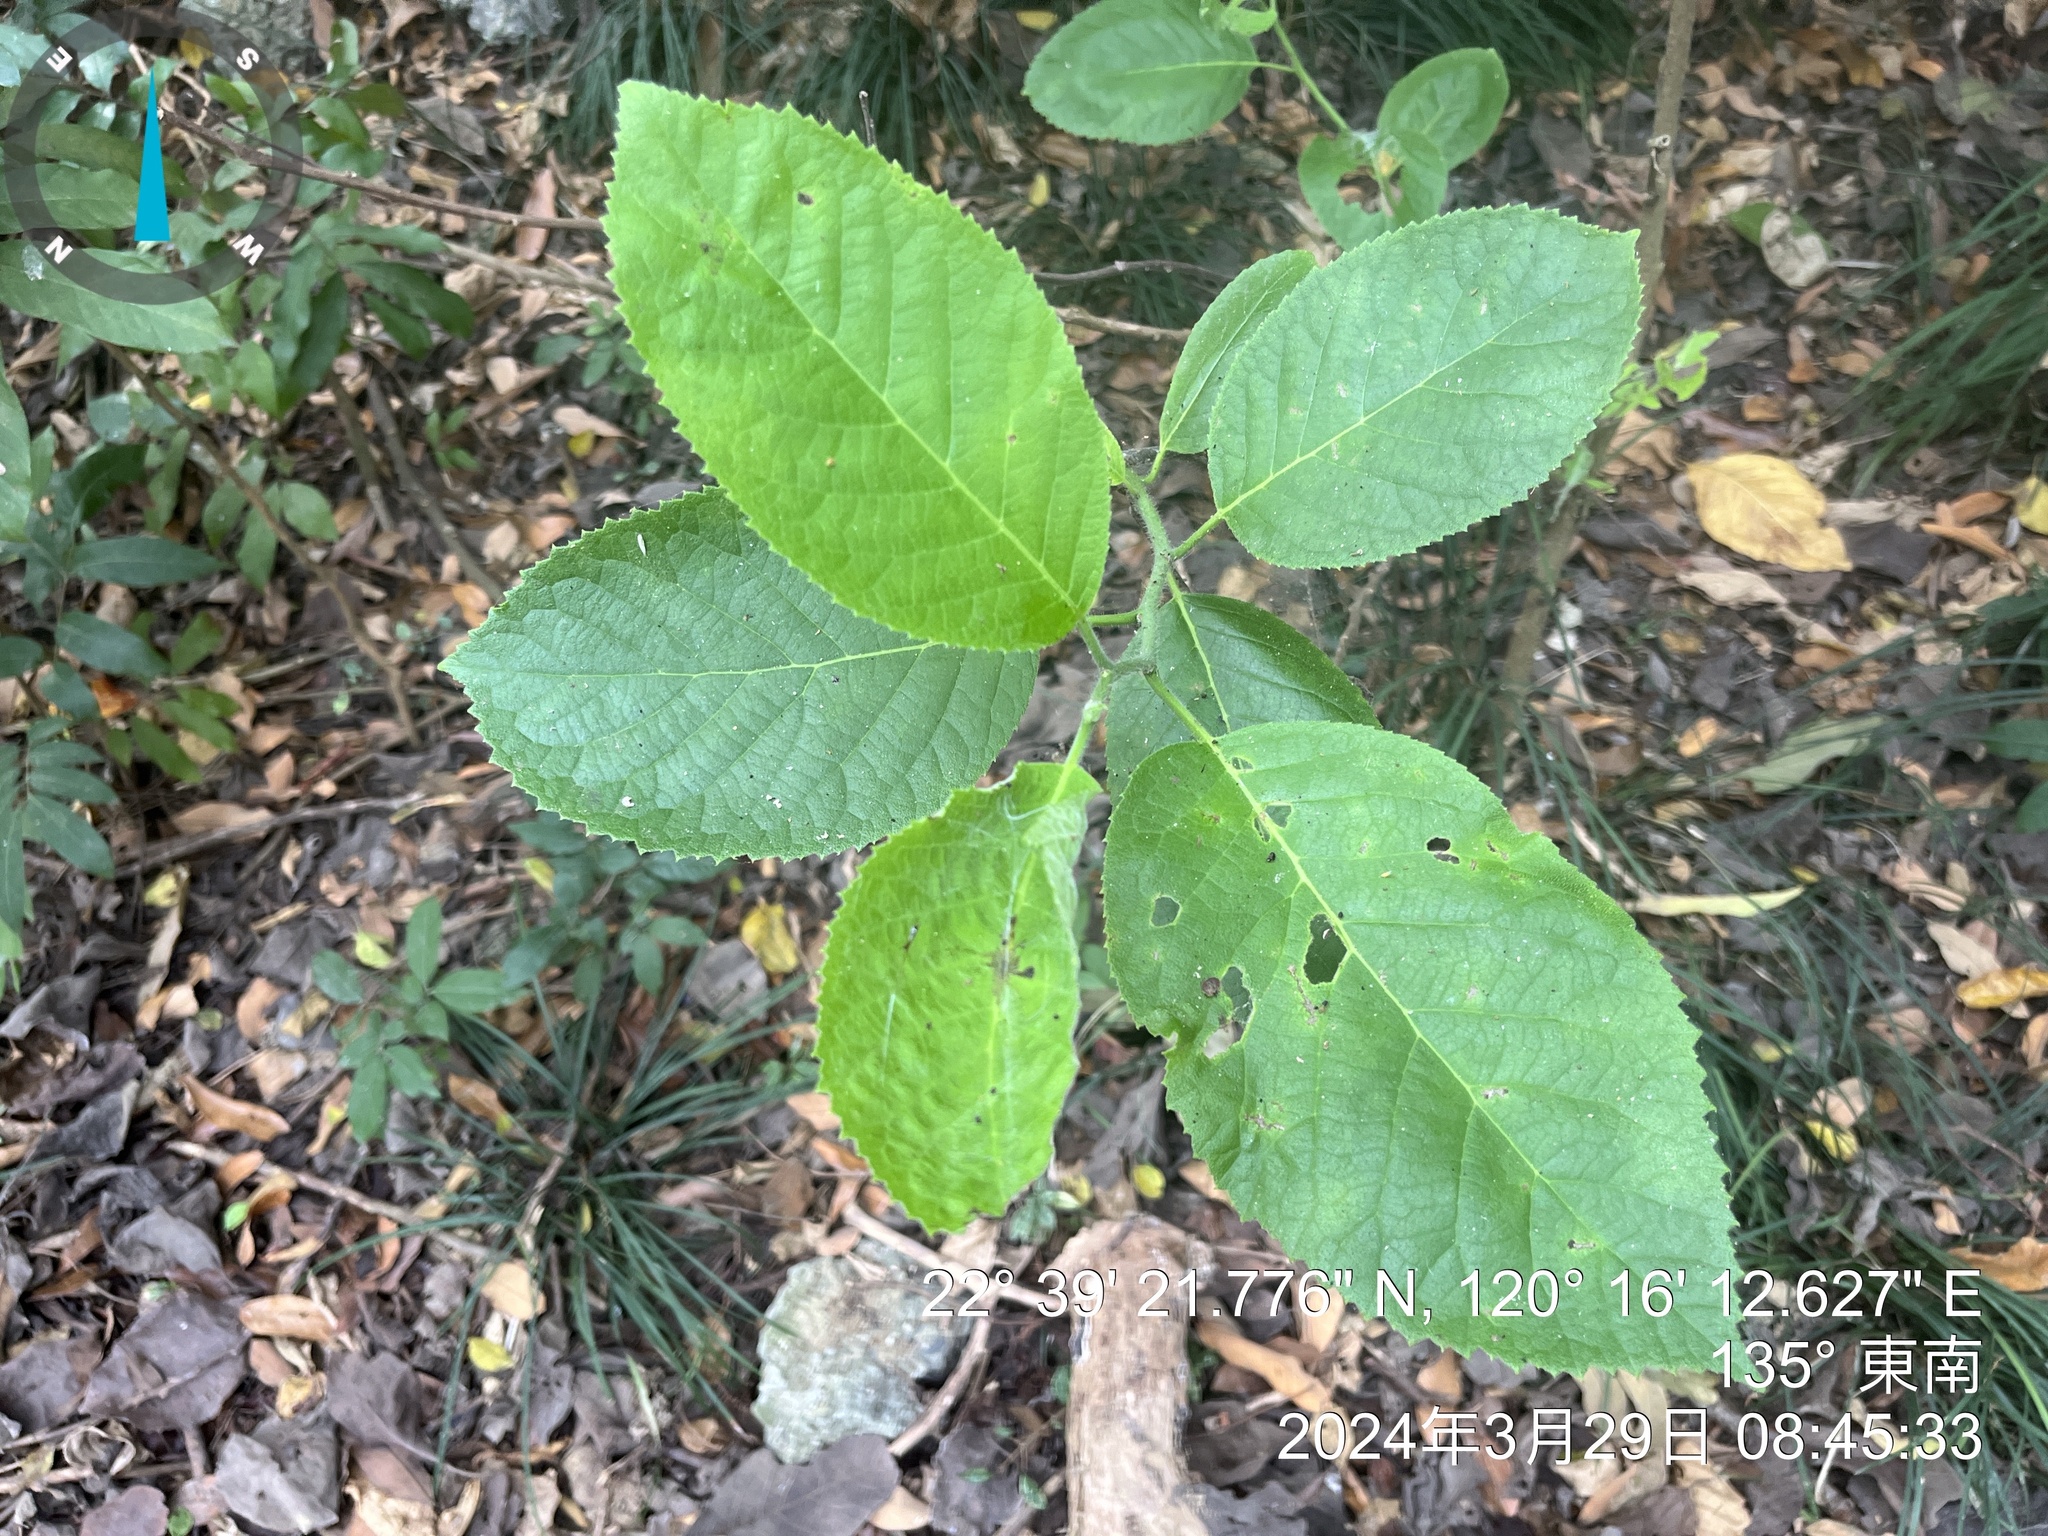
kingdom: Plantae
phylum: Tracheophyta
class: Magnoliopsida
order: Boraginales
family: Ehretiaceae
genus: Ehretia
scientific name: Ehretia acuminata
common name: Kodo wood
